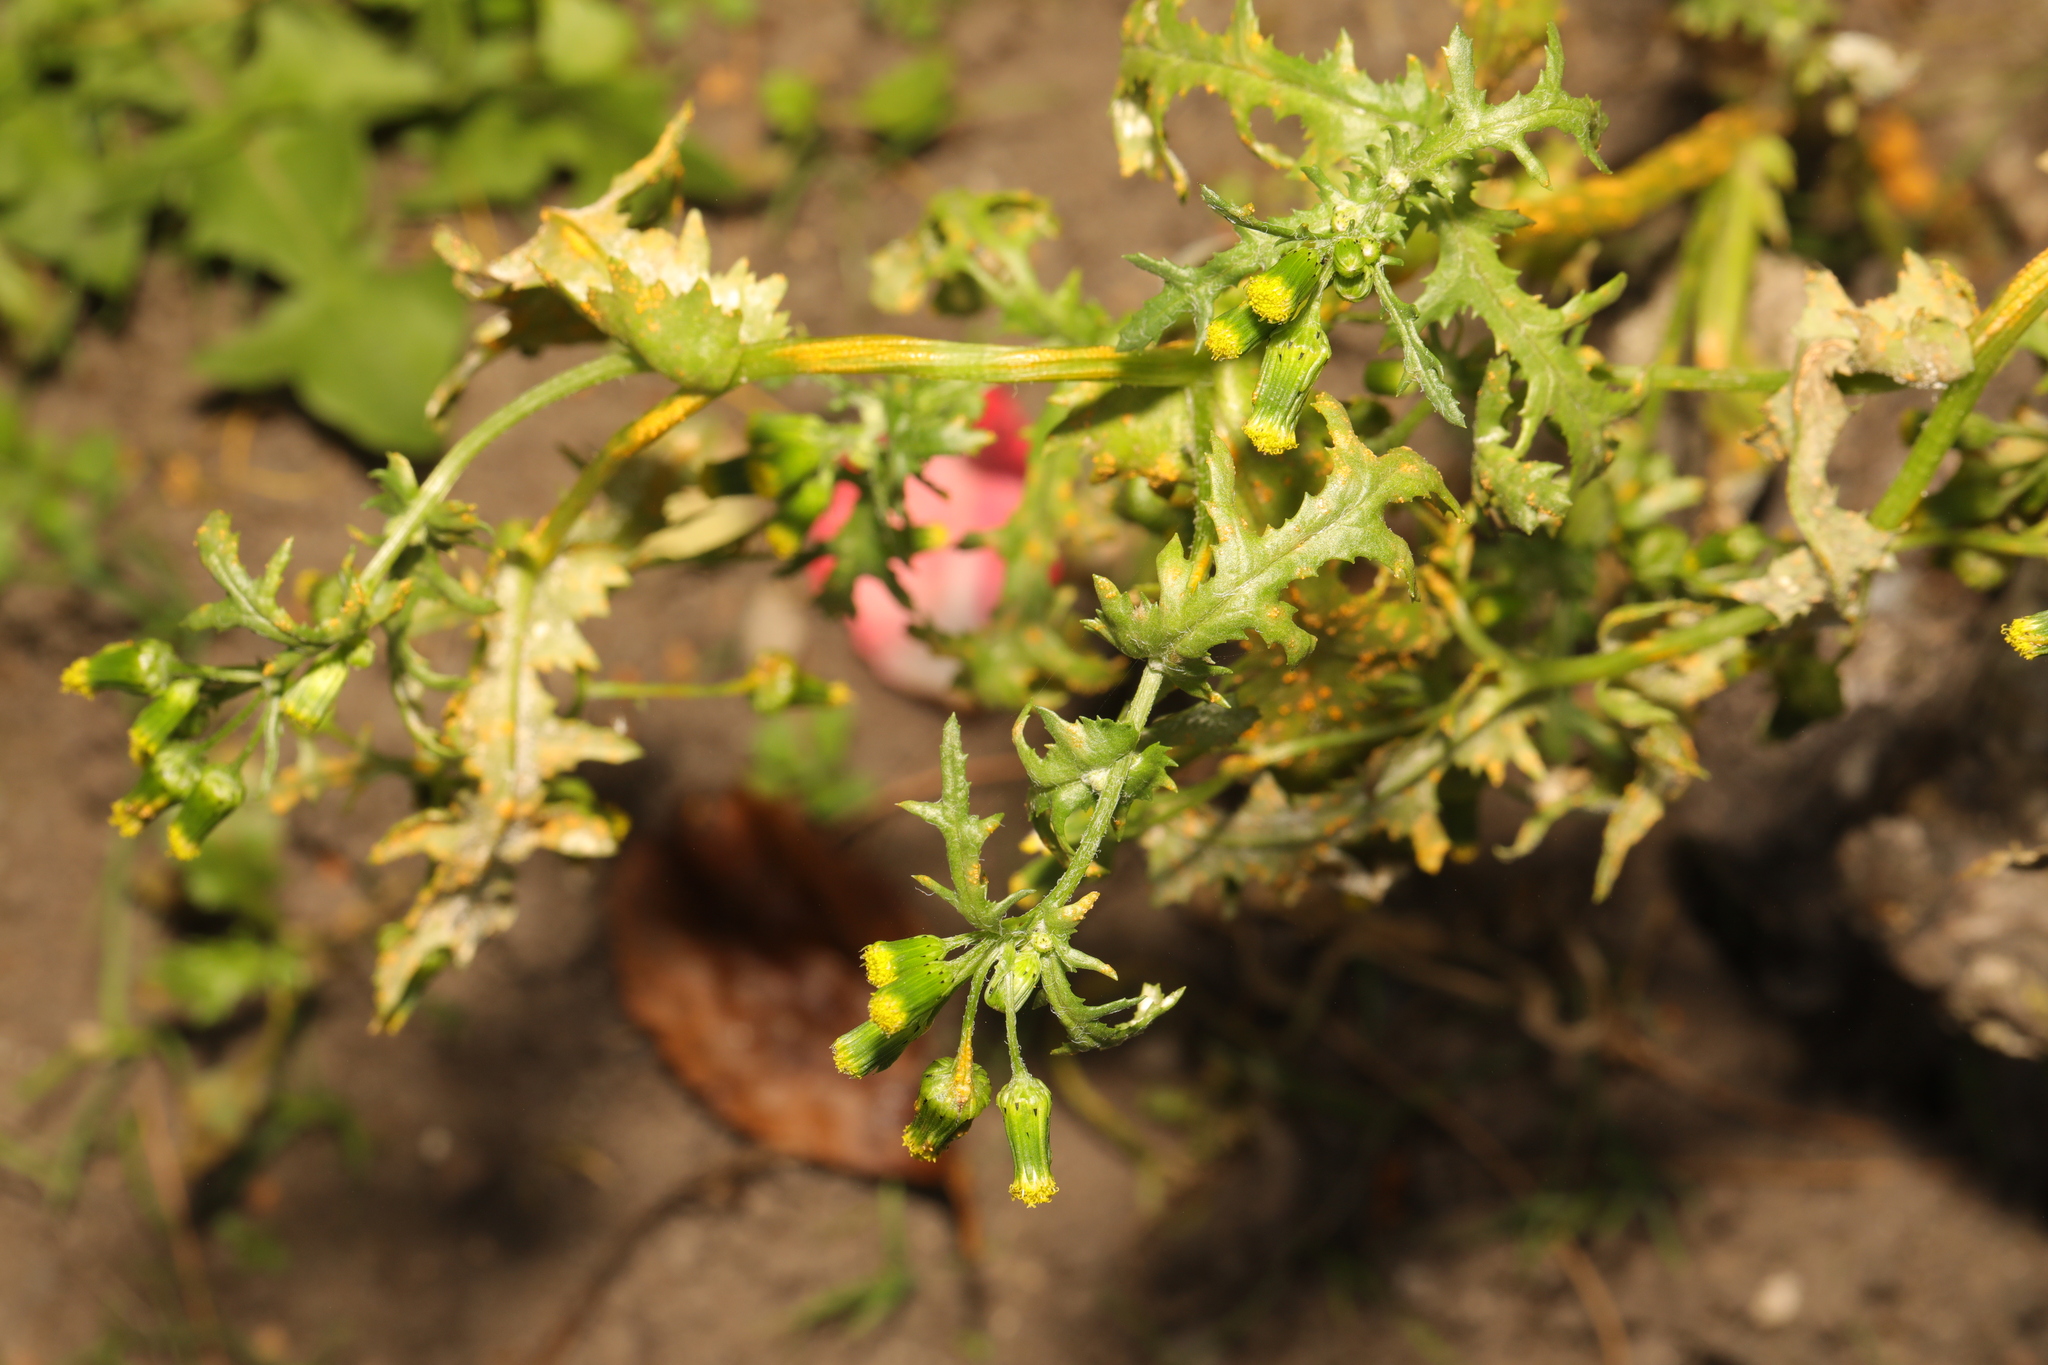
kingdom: Plantae
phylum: Tracheophyta
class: Magnoliopsida
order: Asterales
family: Asteraceae
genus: Senecio
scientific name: Senecio vulgaris
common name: Old-man-in-the-spring
